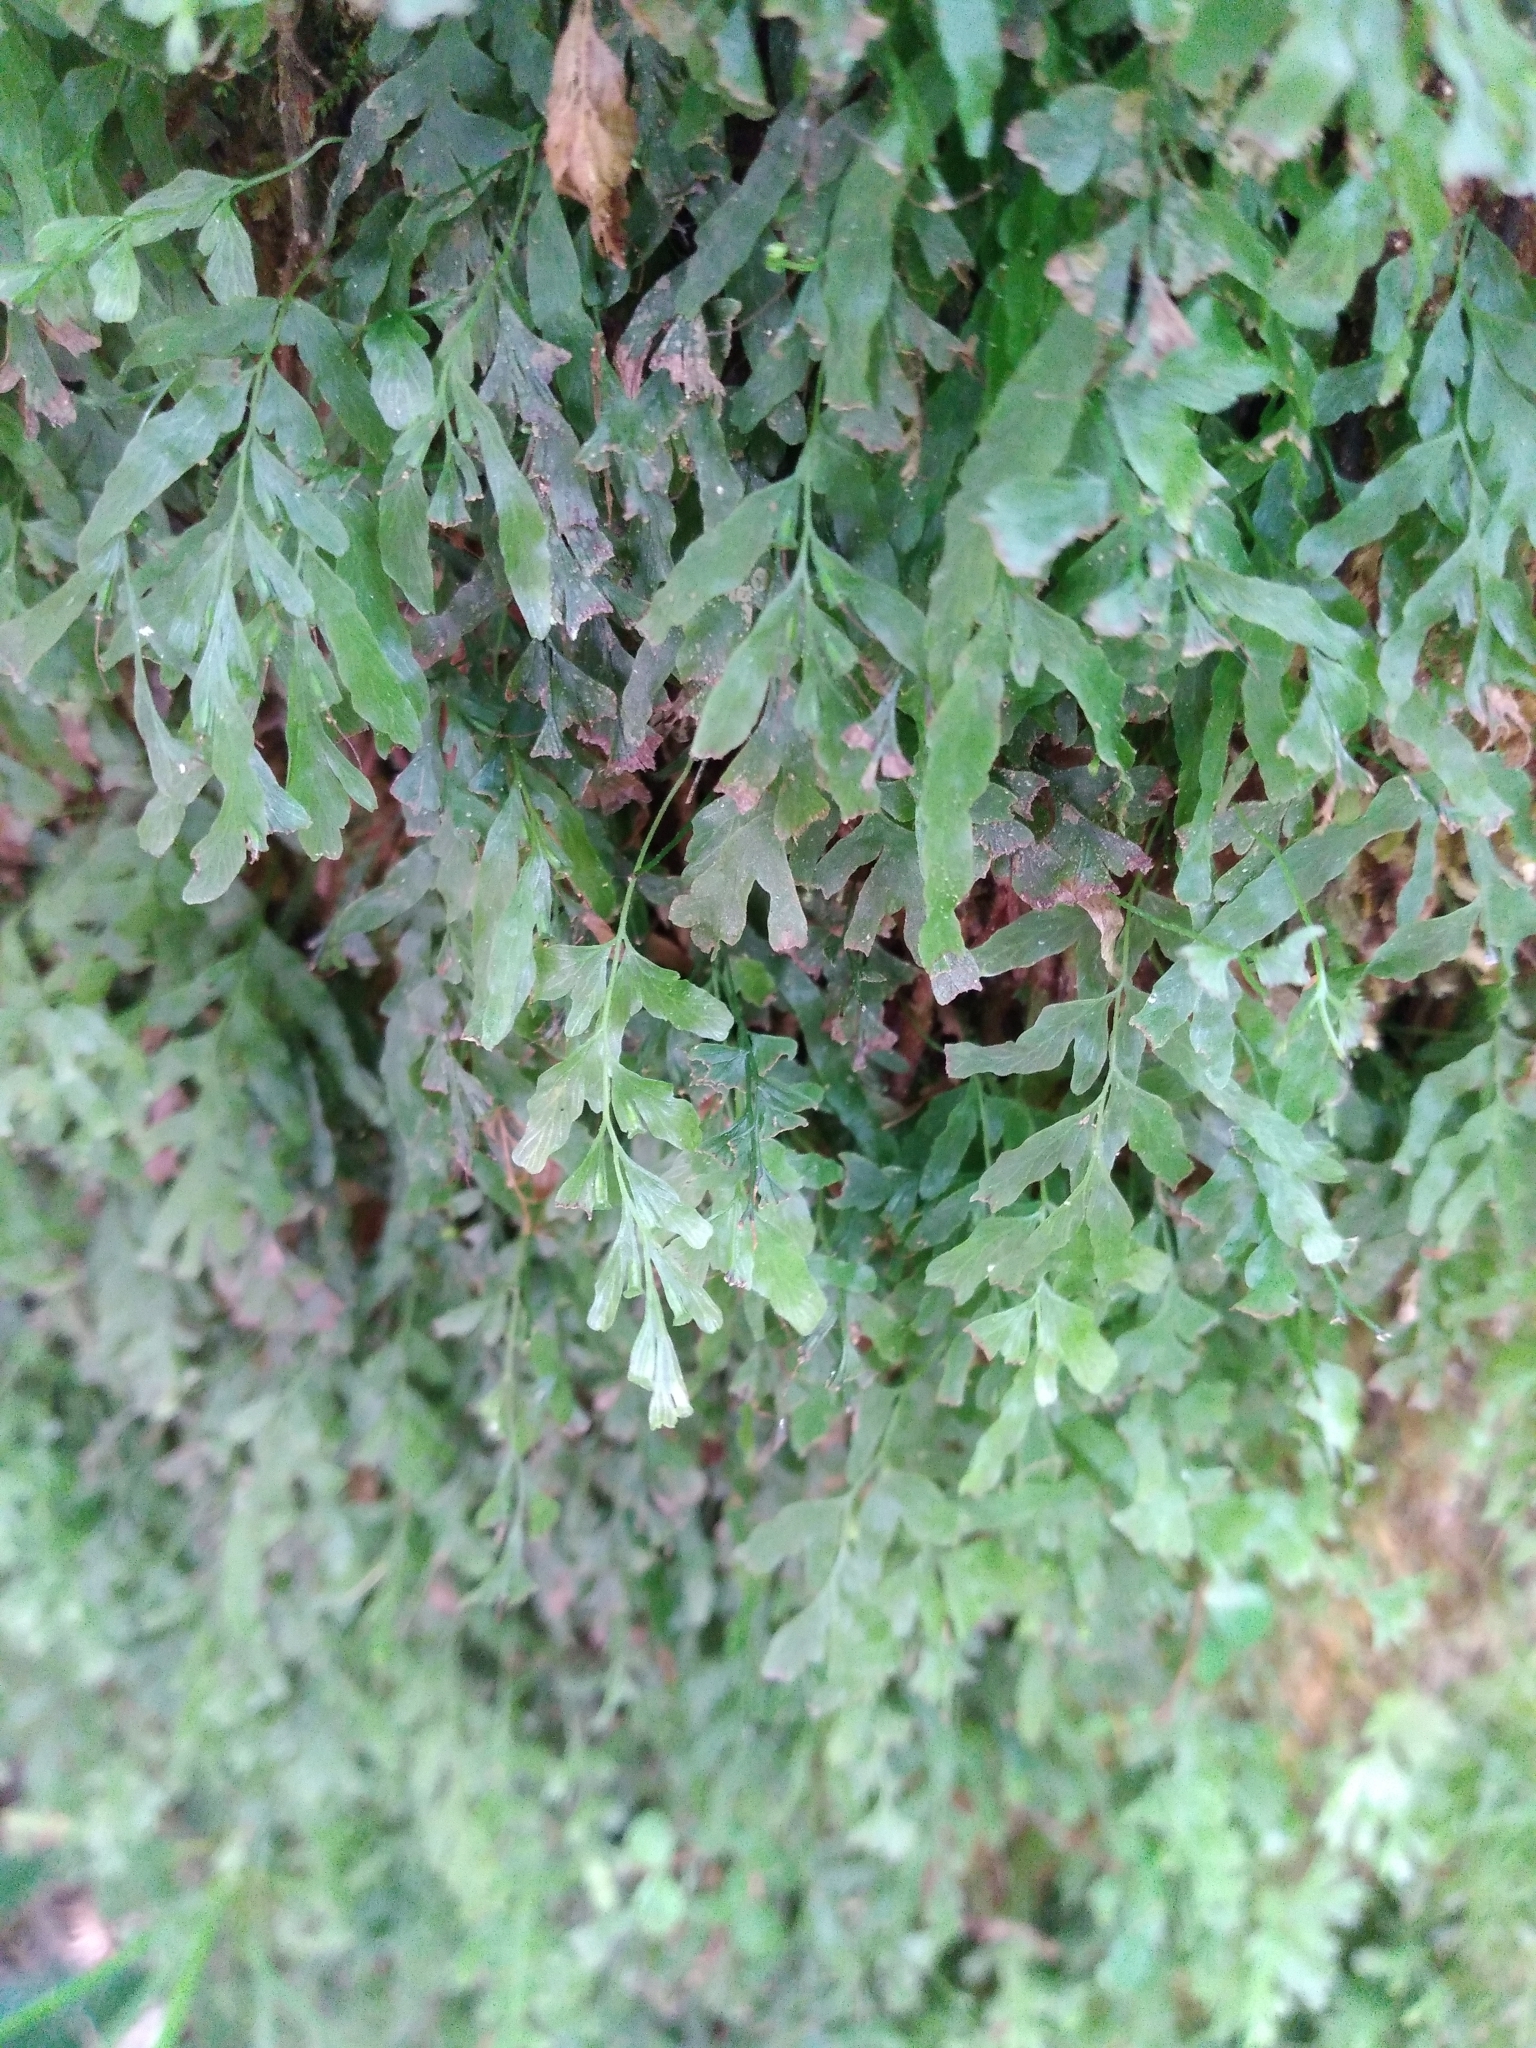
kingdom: Plantae
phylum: Tracheophyta
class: Polypodiopsida
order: Hymenophyllales
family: Hymenophyllaceae
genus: Polyphlebium
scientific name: Polyphlebium venosum
